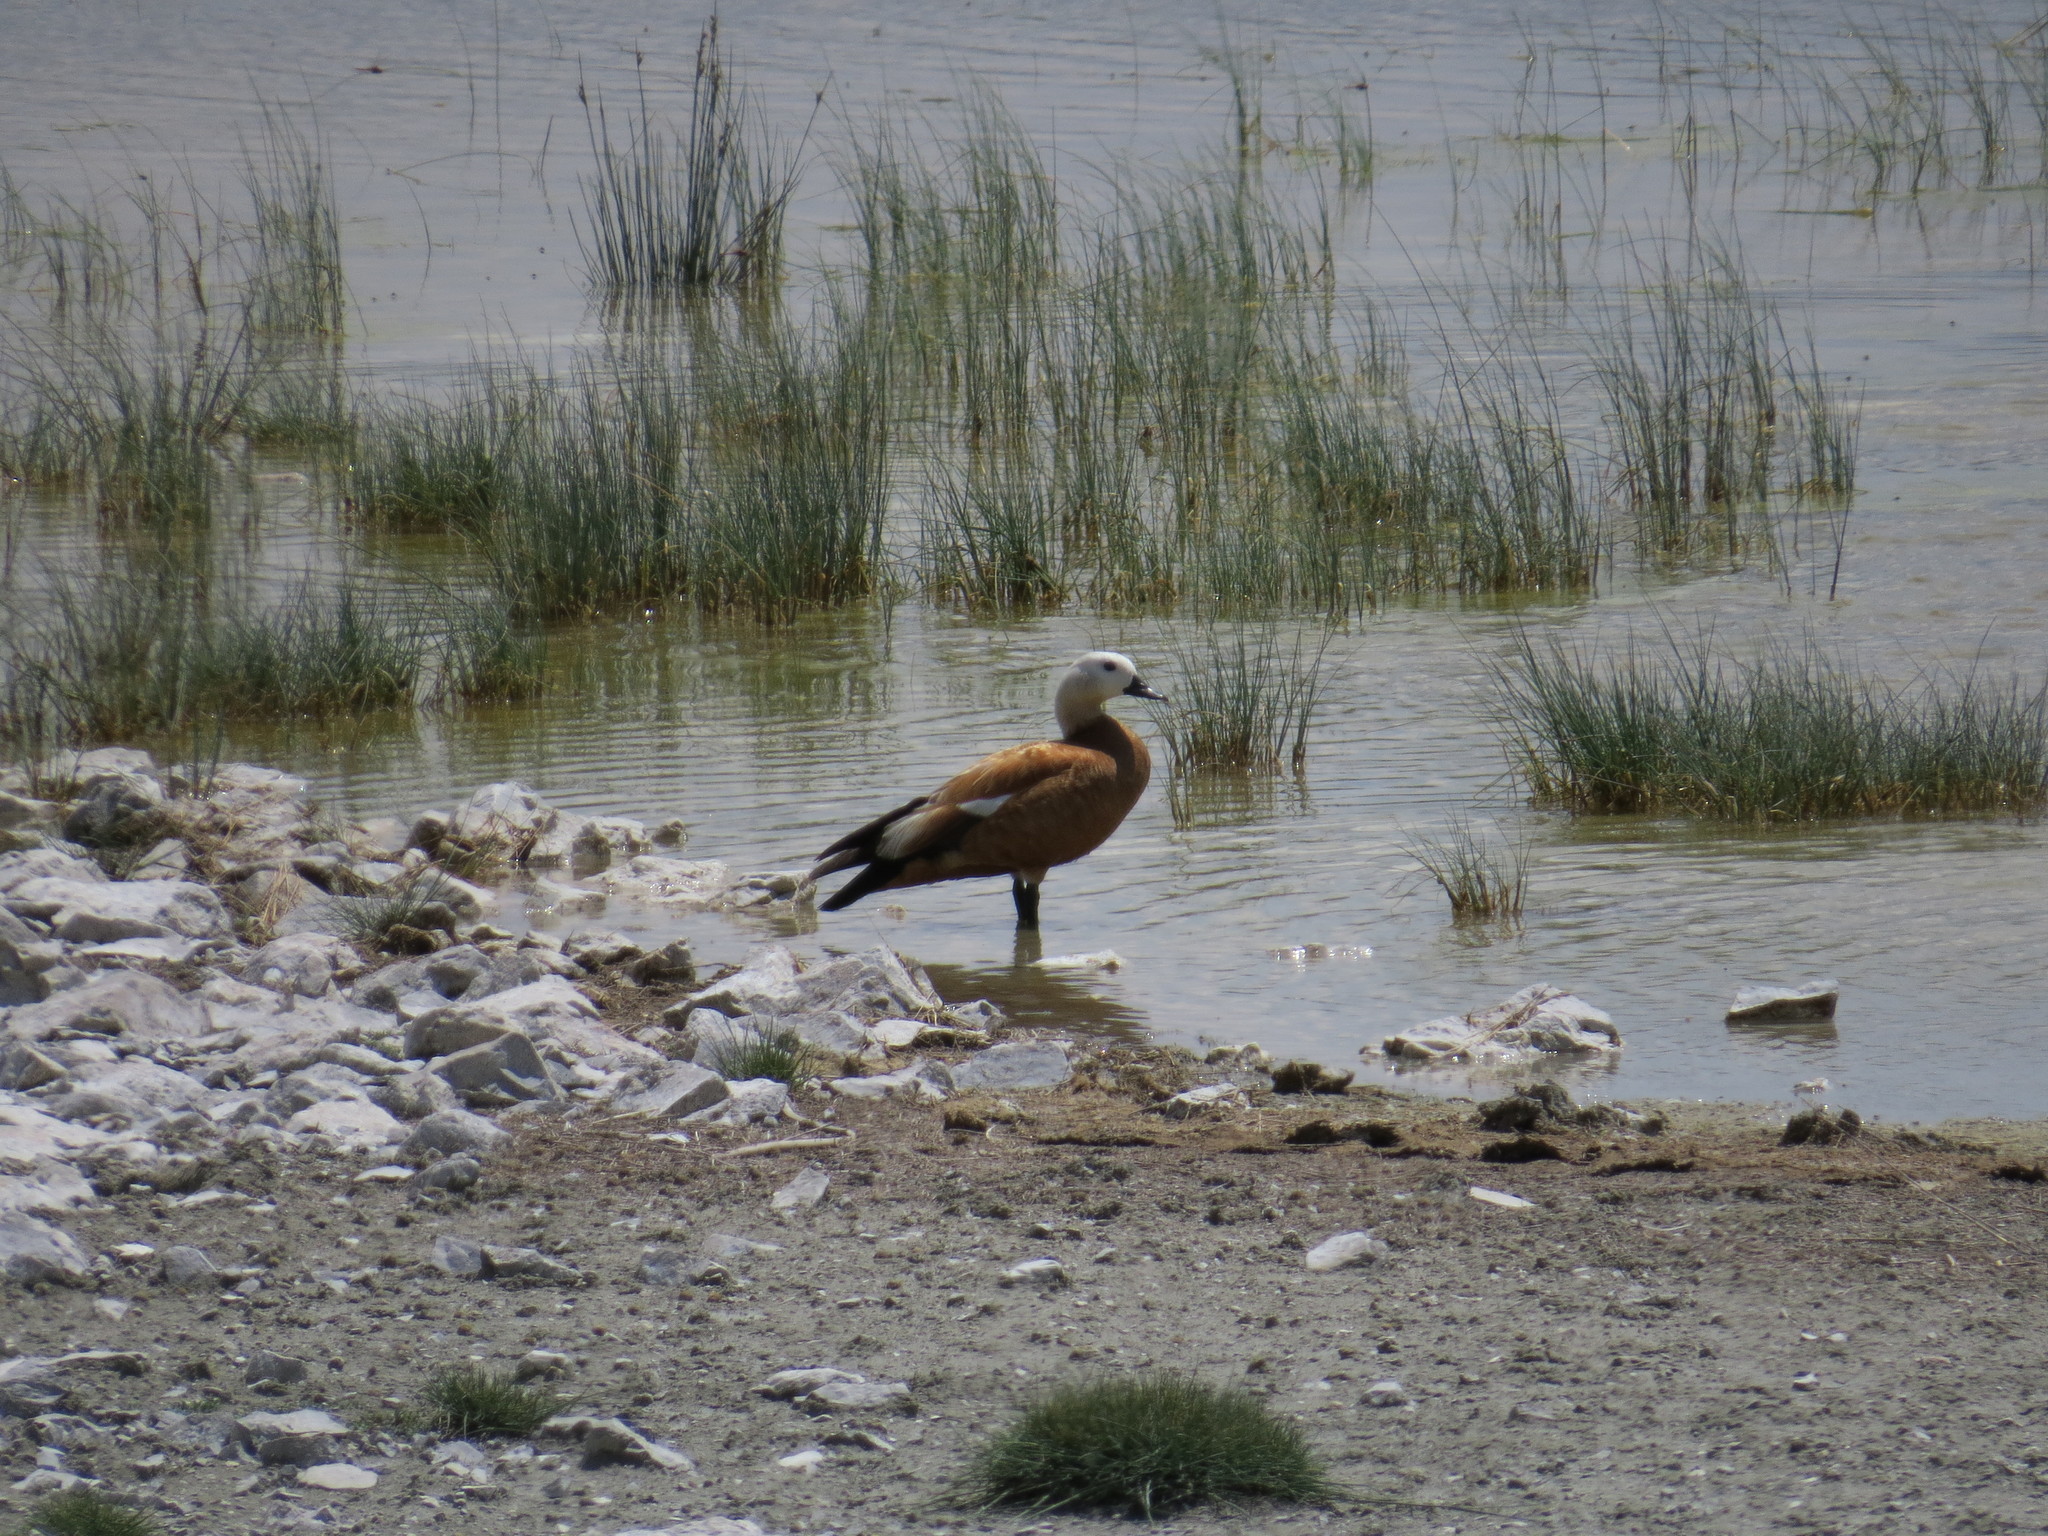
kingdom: Animalia
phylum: Chordata
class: Aves
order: Anseriformes
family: Anatidae
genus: Tadorna
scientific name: Tadorna ferruginea
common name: Ruddy shelduck
